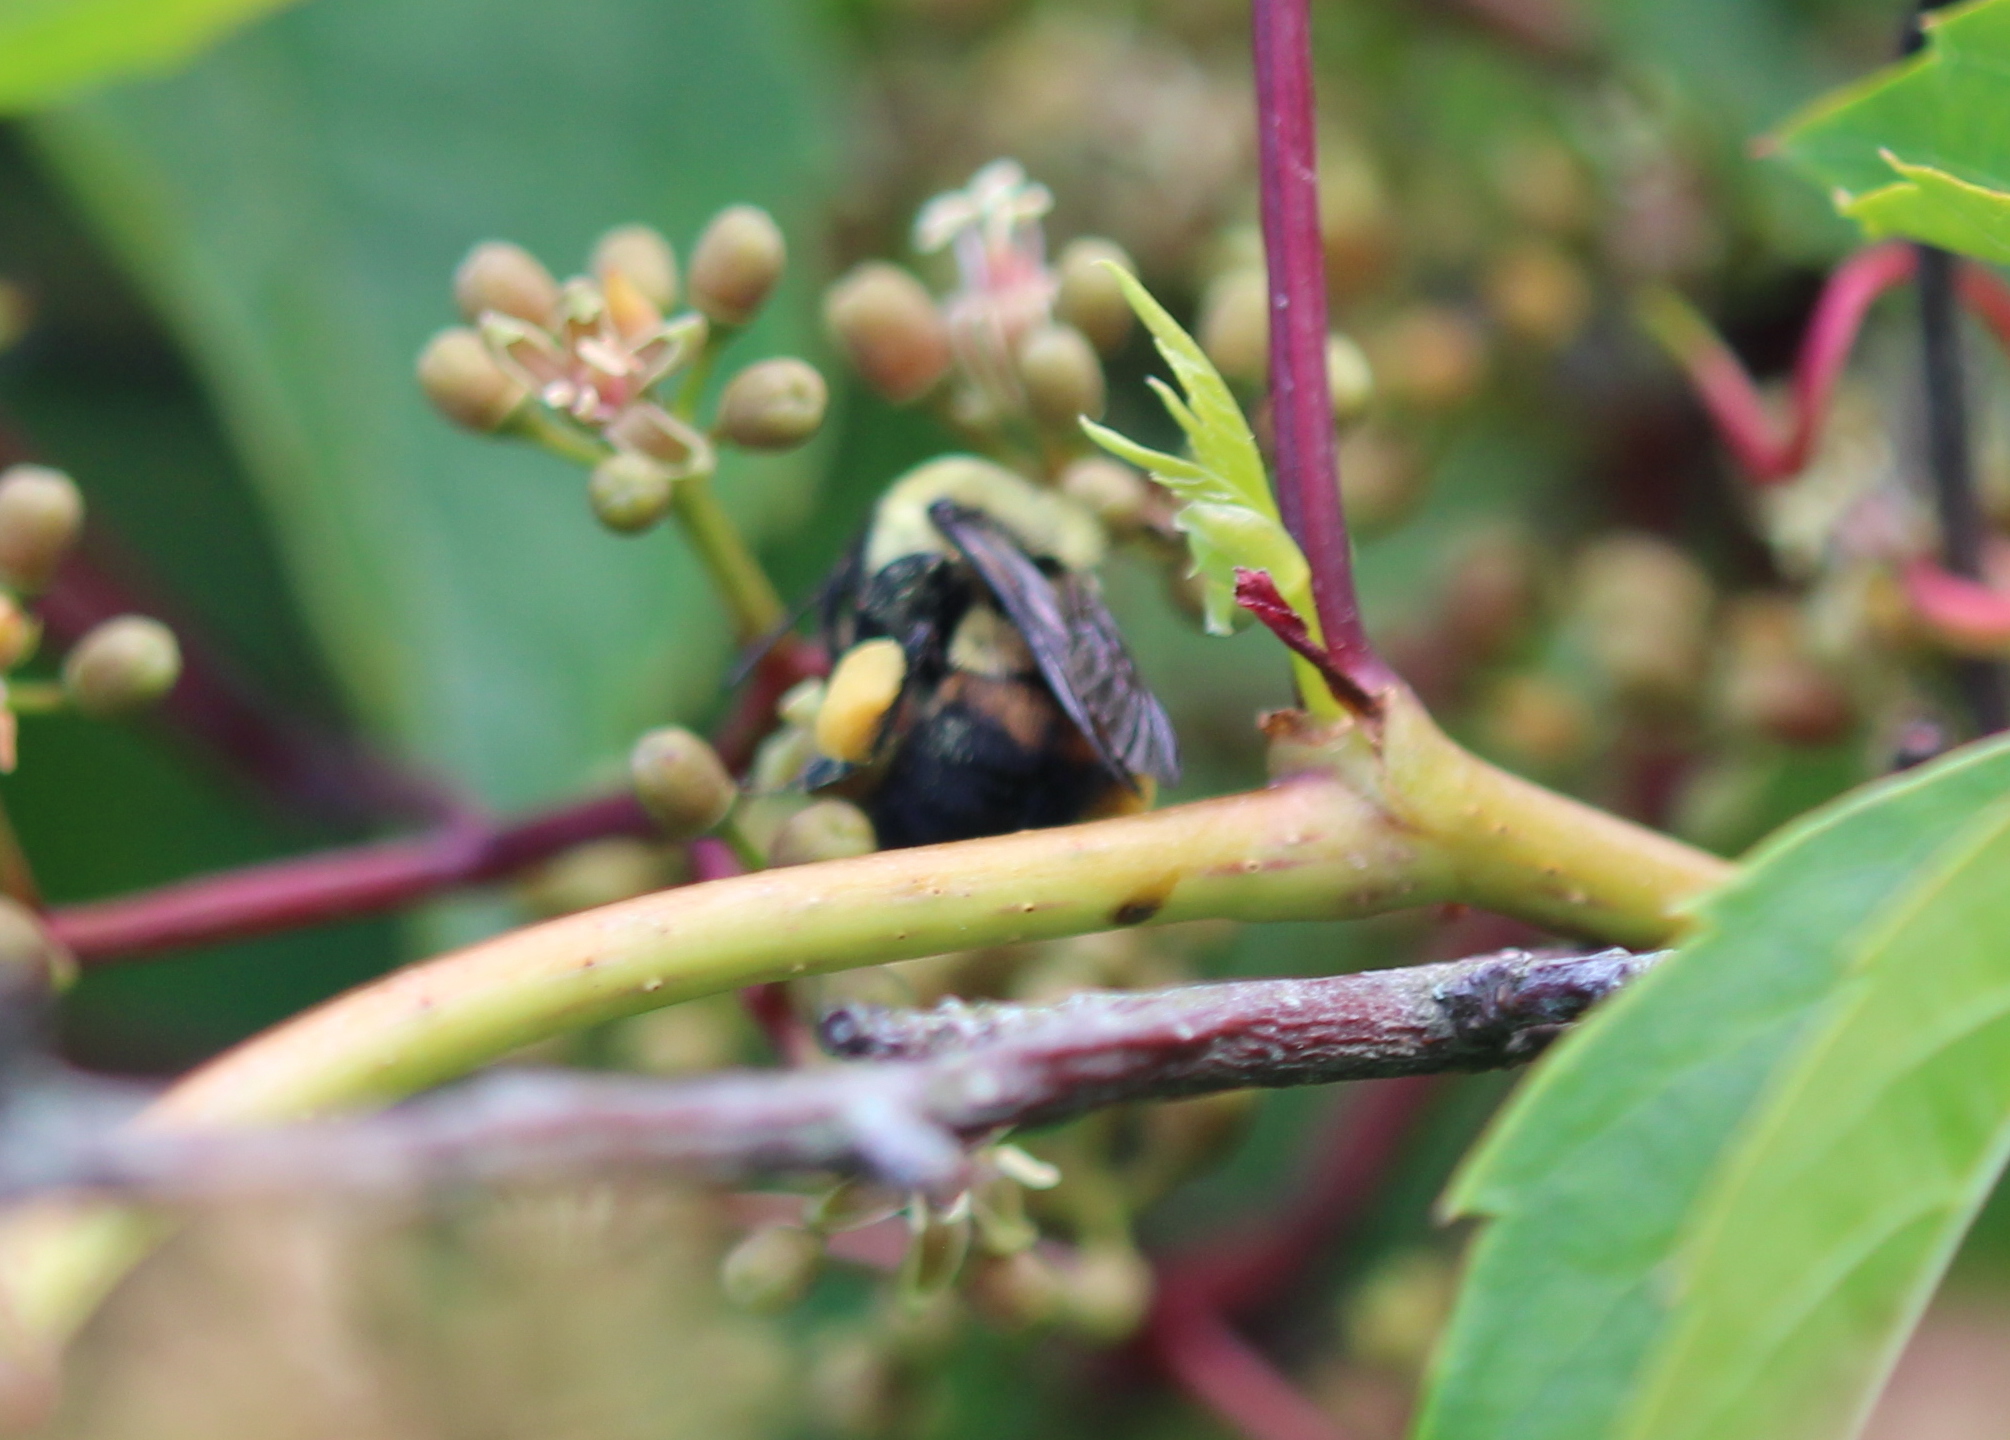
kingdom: Animalia
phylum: Arthropoda
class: Insecta
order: Hymenoptera
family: Apidae
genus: Bombus
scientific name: Bombus griseocollis
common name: Brown-belted bumble bee
